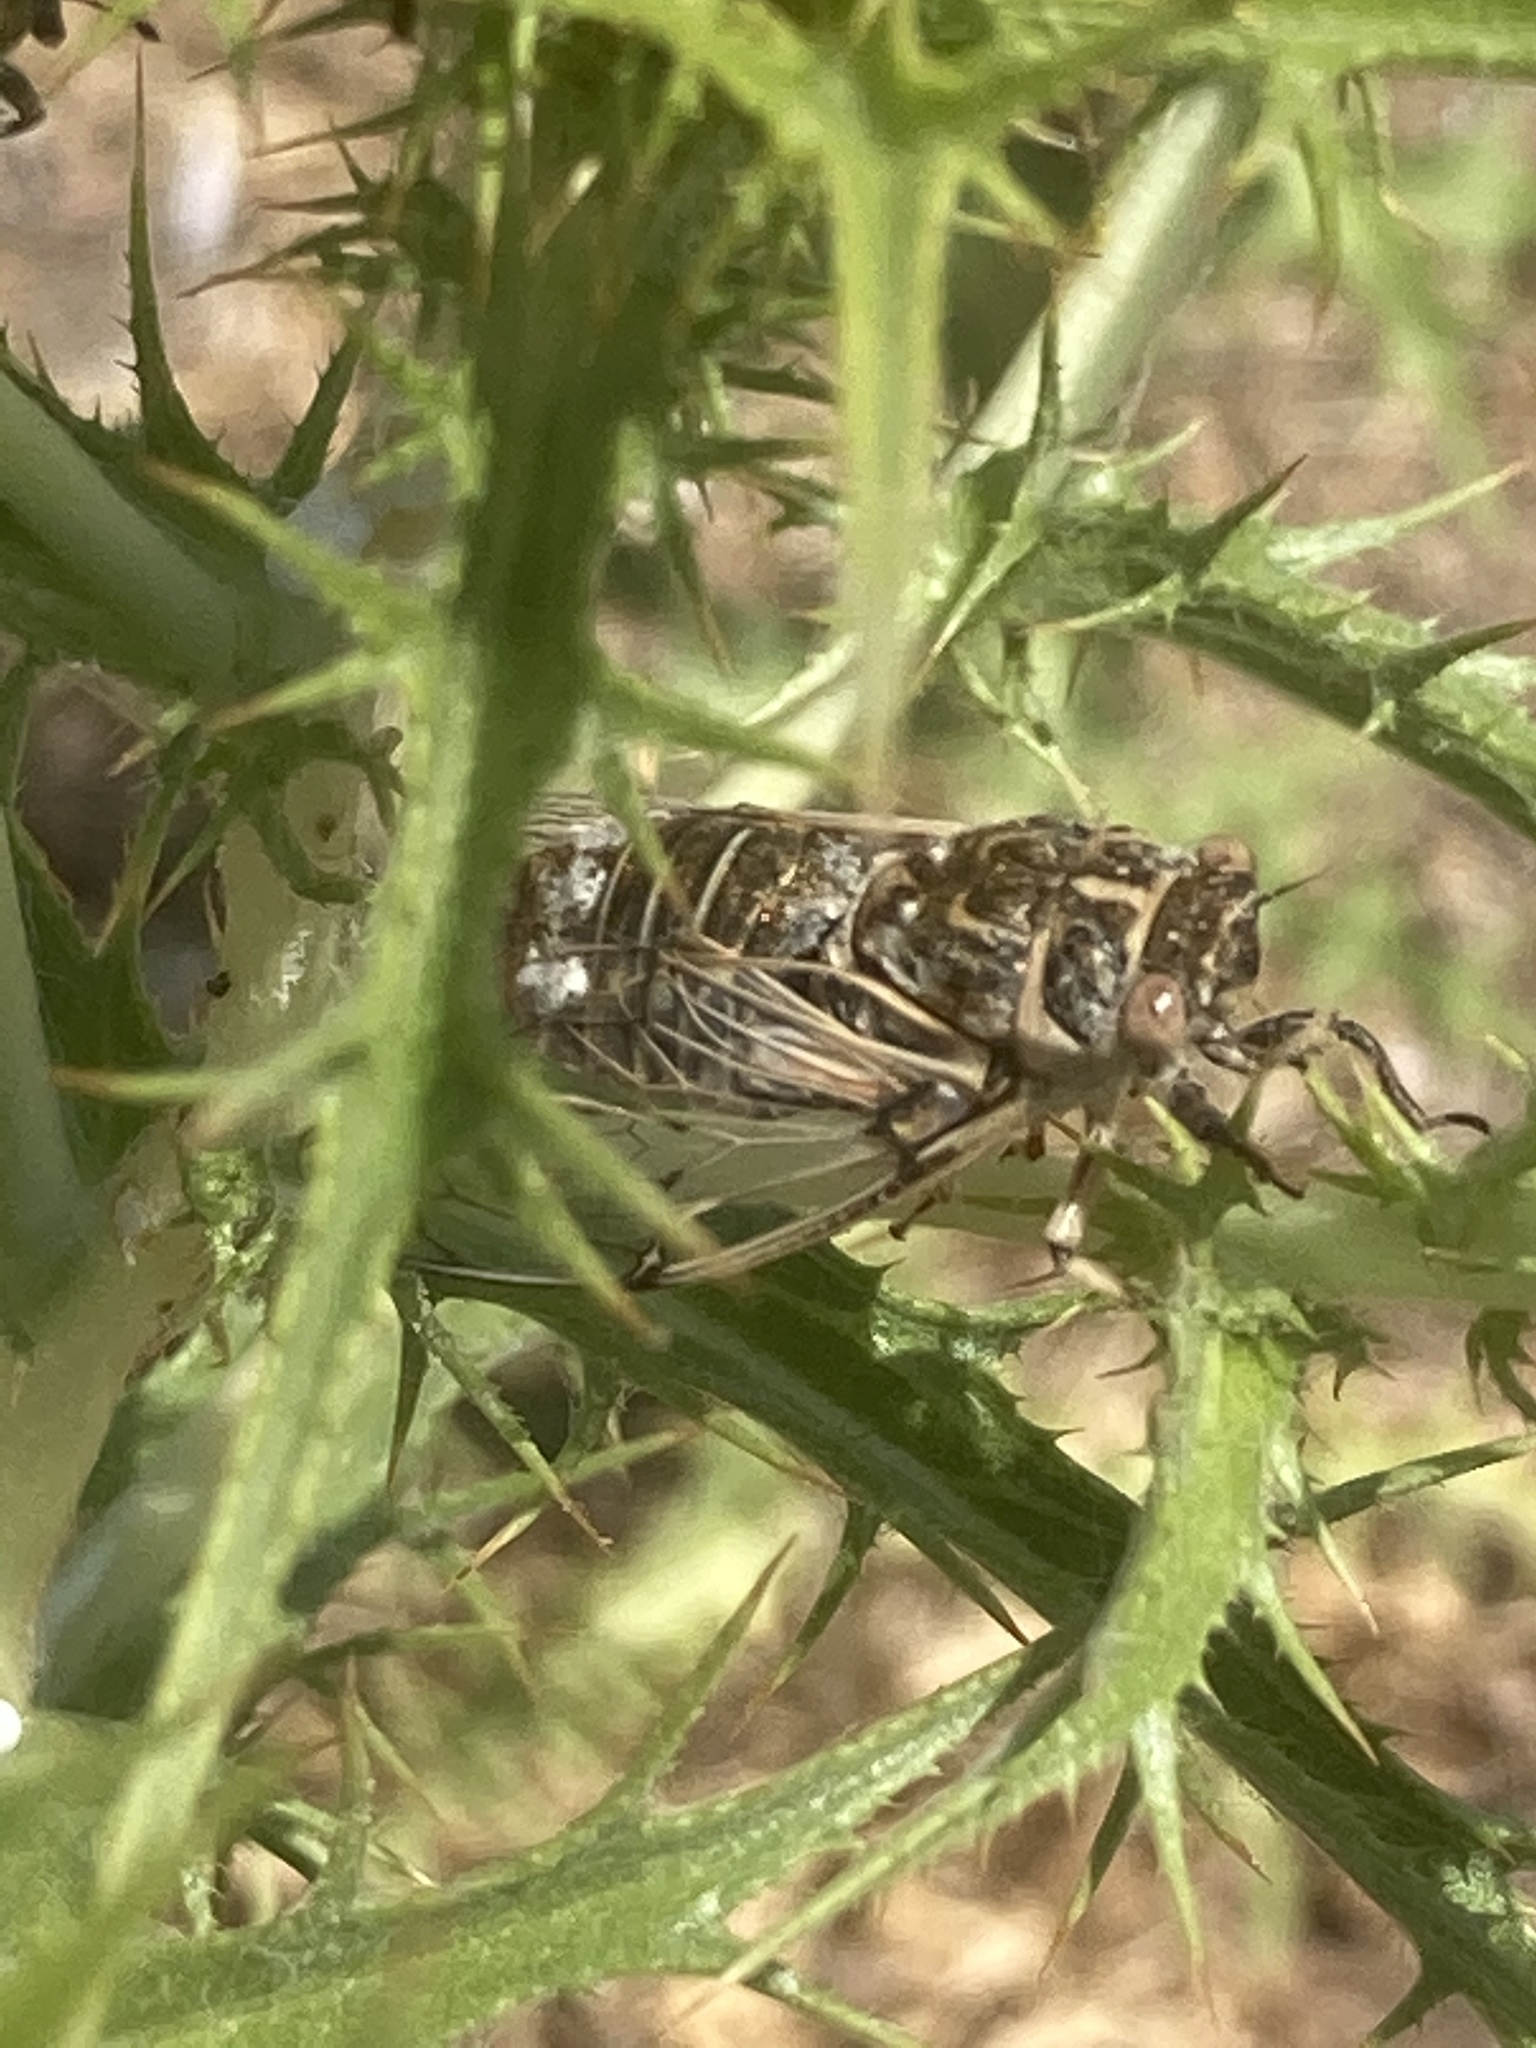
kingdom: Animalia
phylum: Arthropoda
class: Insecta
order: Hemiptera
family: Cicadidae
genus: Cicadatra
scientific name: Cicadatra platyptera
